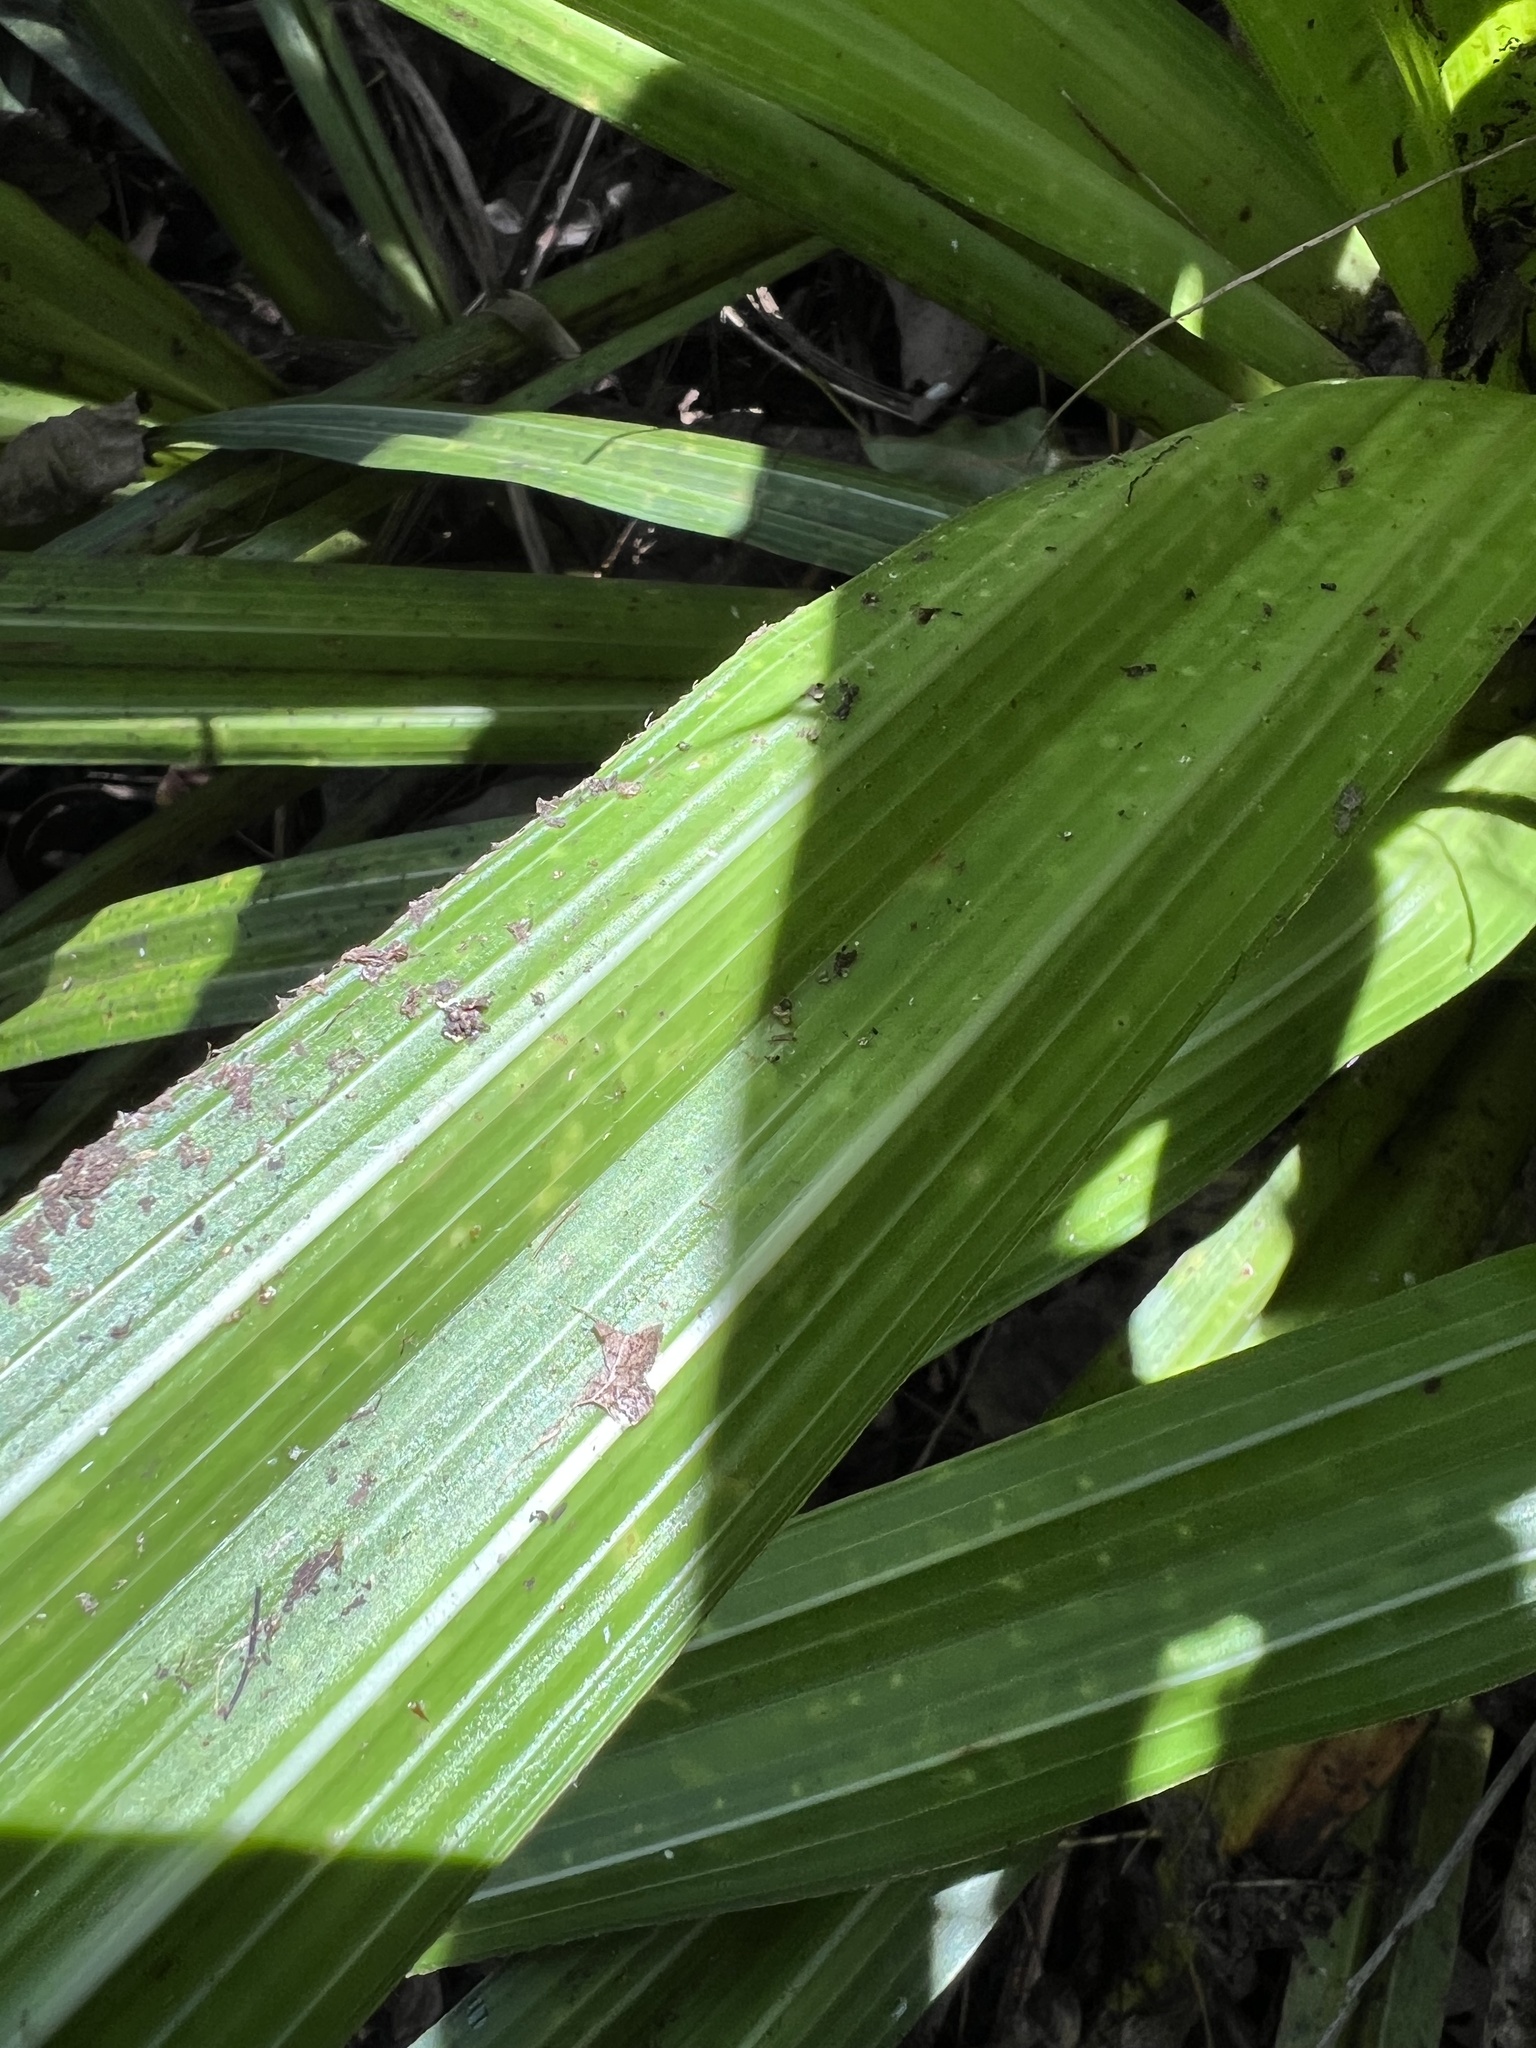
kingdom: Plantae
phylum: Tracheophyta
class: Liliopsida
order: Asparagales
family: Asteliaceae
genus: Astelia
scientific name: Astelia grandis
